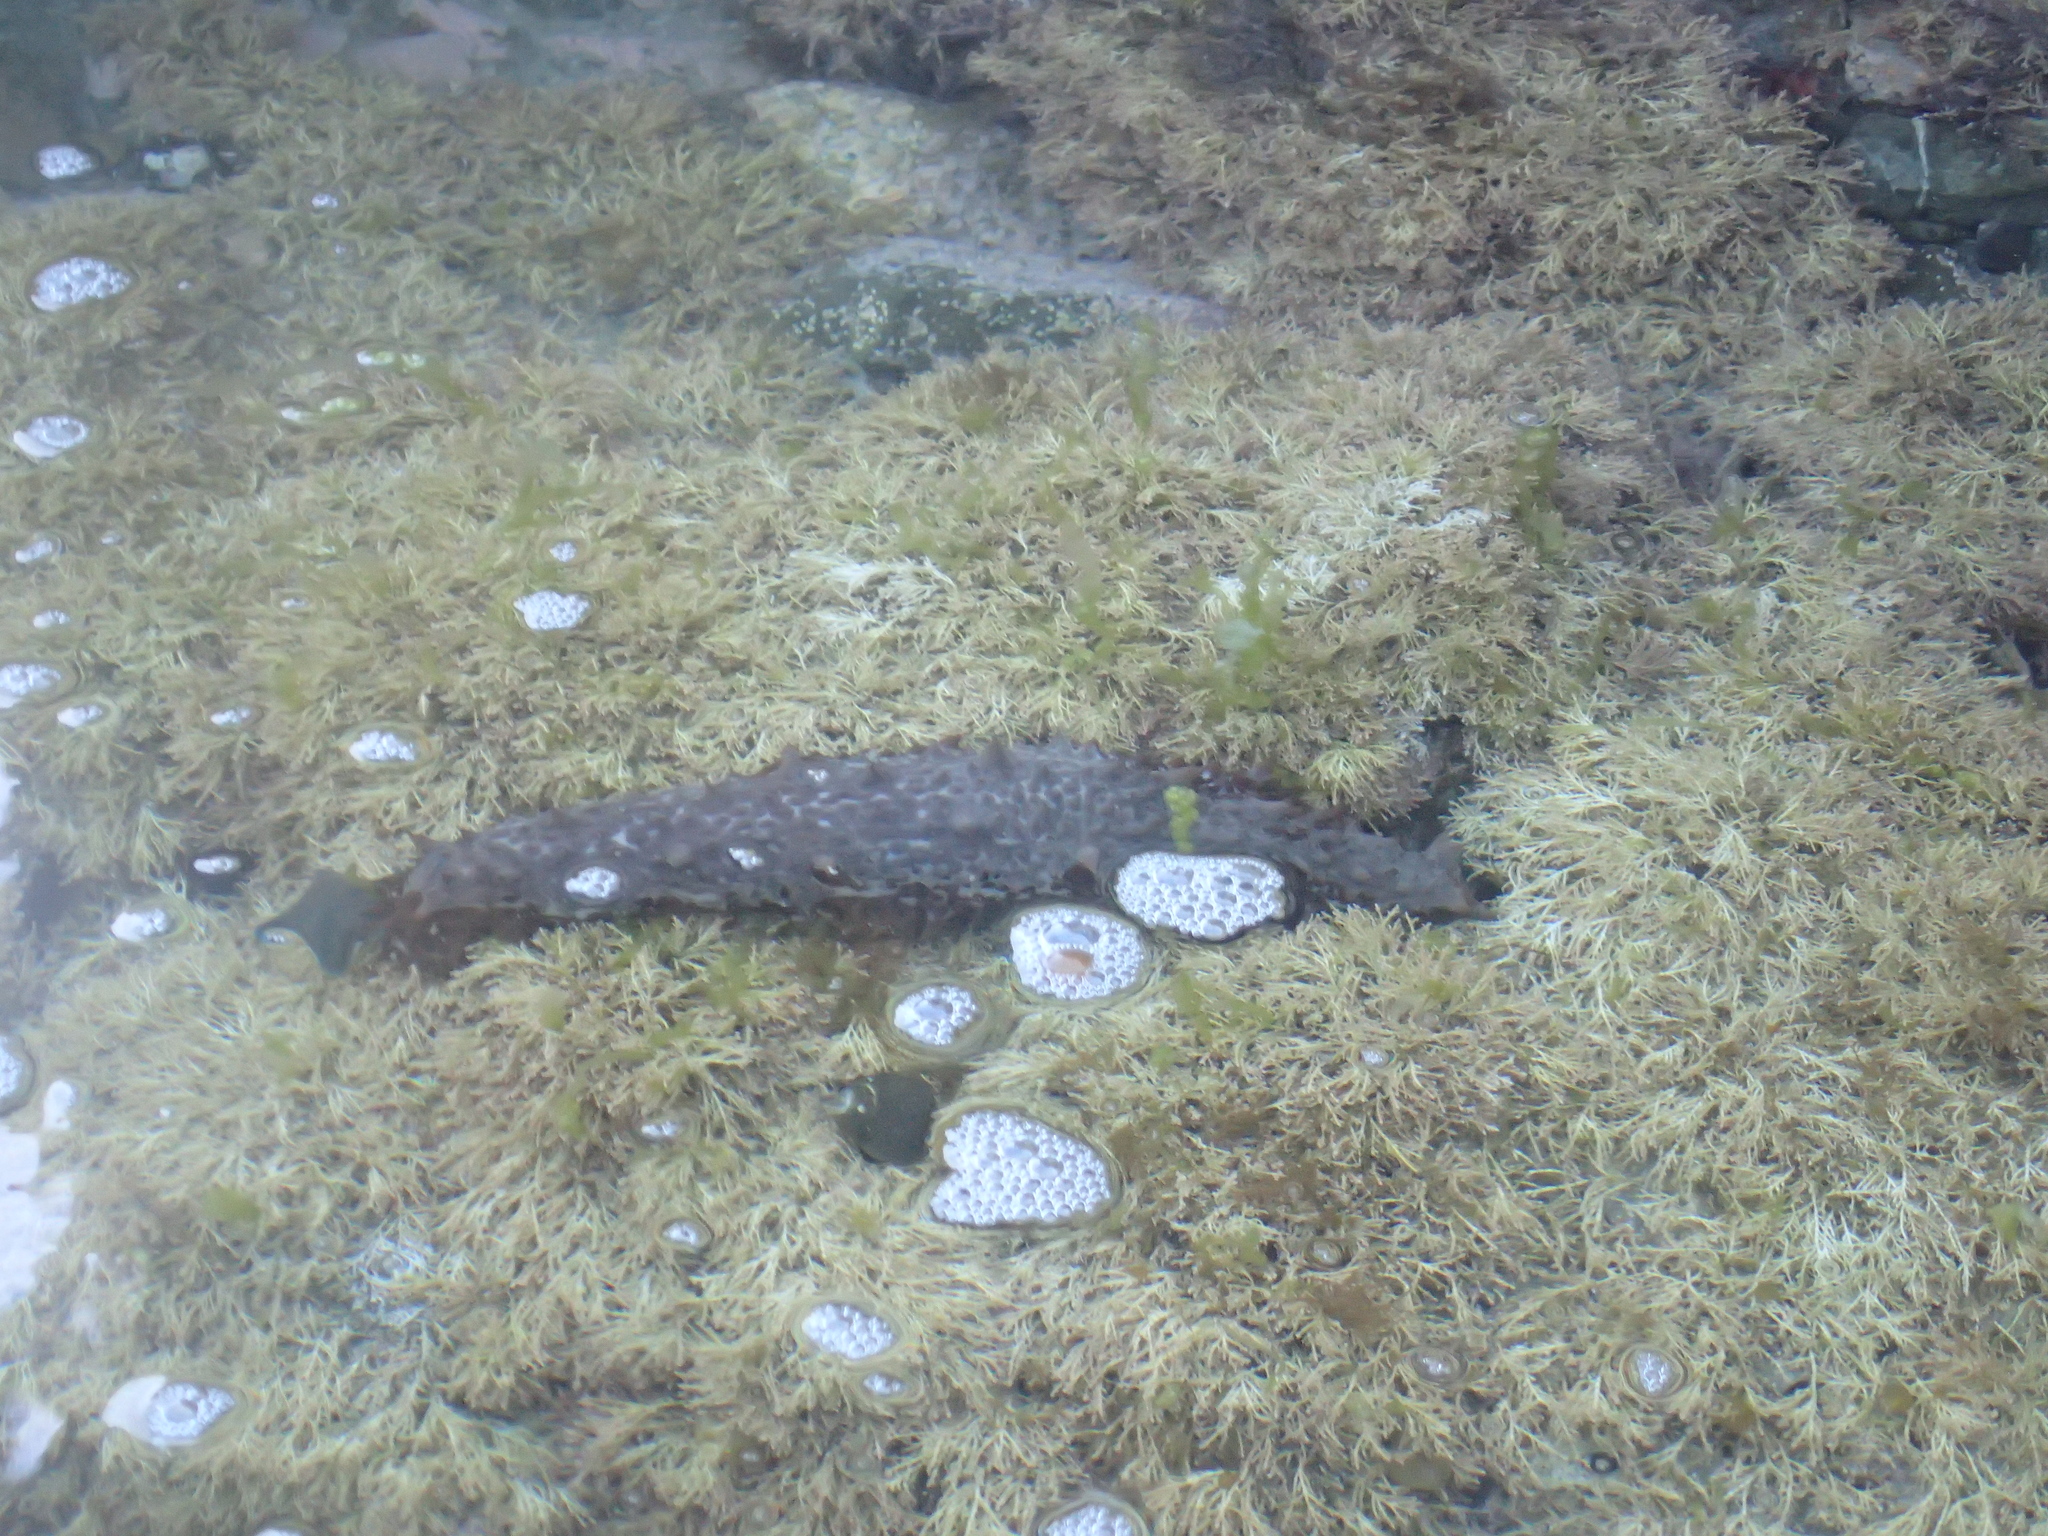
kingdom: Animalia
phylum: Echinodermata
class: Holothuroidea
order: Synallactida
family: Stichopodidae
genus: Australostichopus
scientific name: Australostichopus mollis
